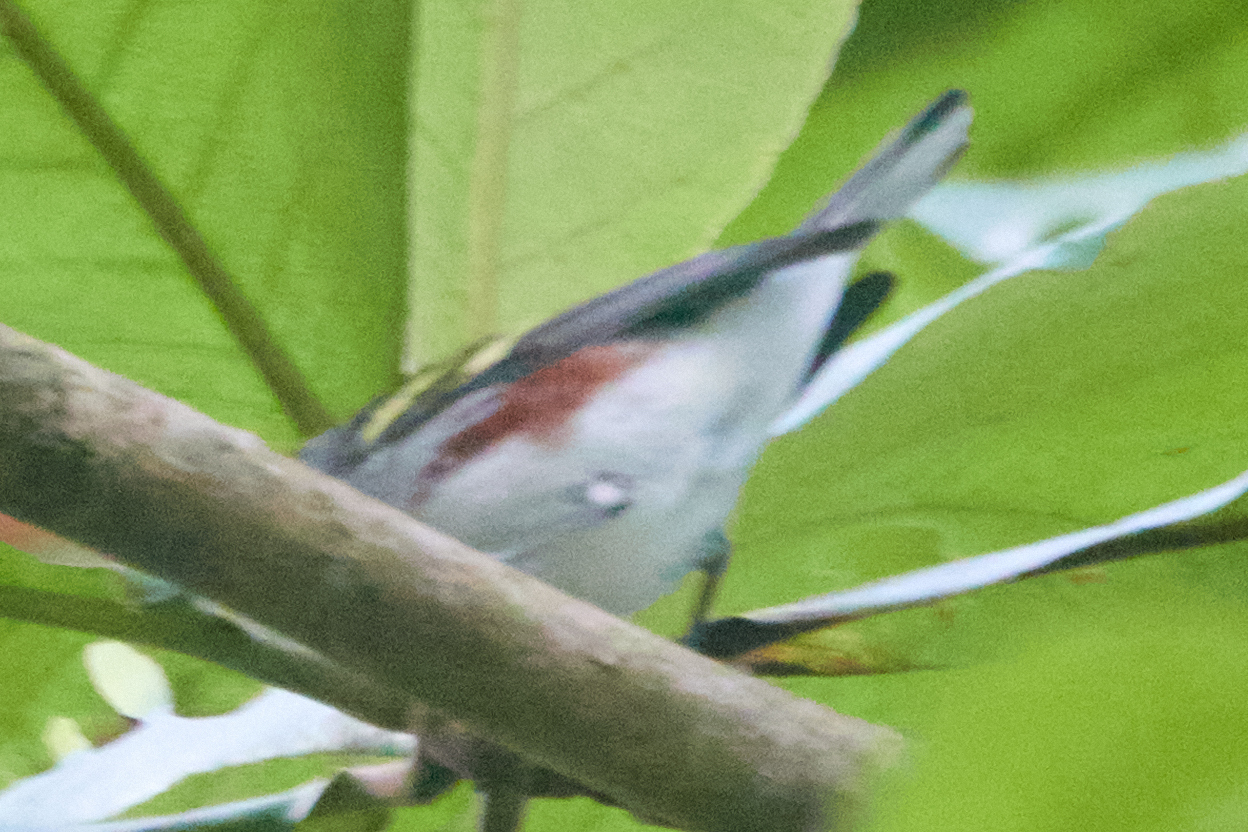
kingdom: Animalia
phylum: Chordata
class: Aves
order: Passeriformes
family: Parulidae
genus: Setophaga
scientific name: Setophaga pensylvanica
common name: Chestnut-sided warbler
